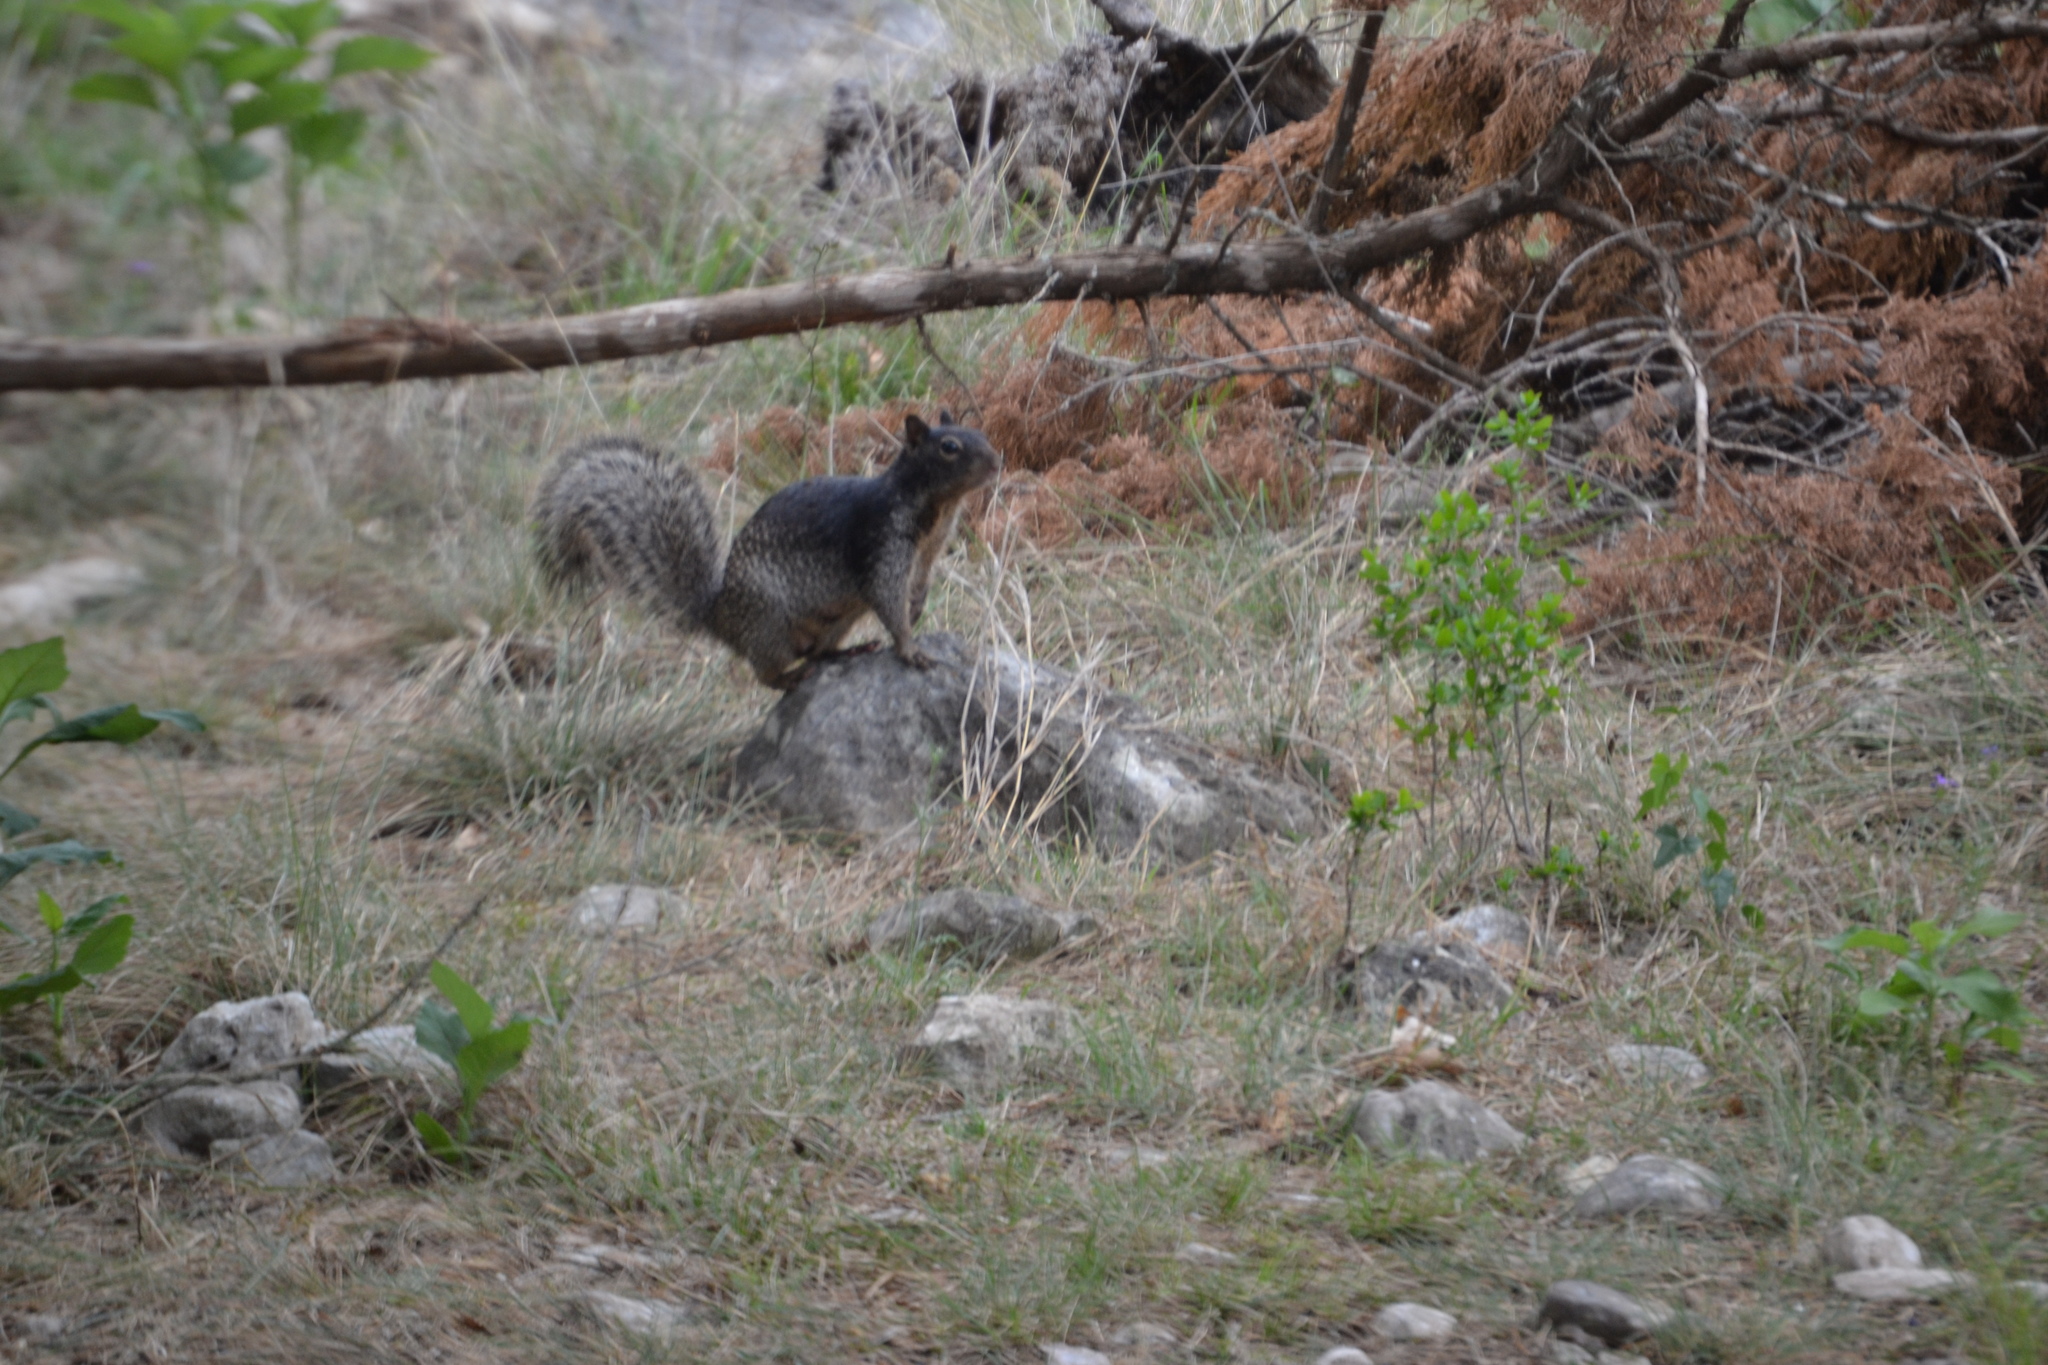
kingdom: Animalia
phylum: Chordata
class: Mammalia
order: Rodentia
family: Sciuridae
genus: Otospermophilus
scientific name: Otospermophilus variegatus
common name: Rock squirrel
